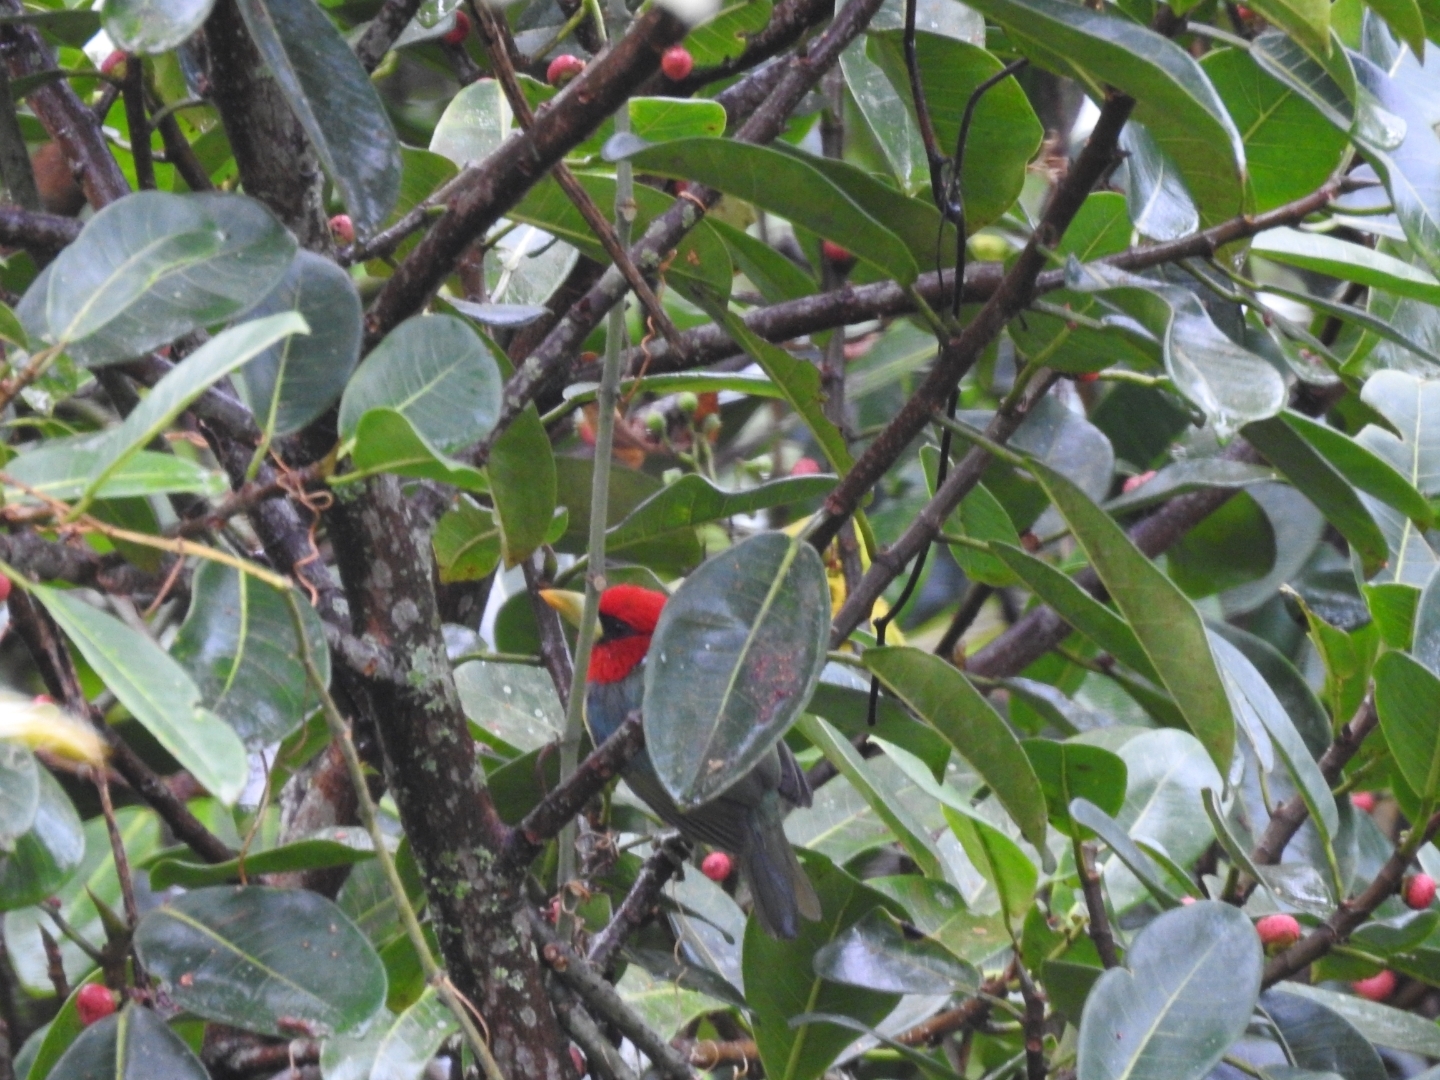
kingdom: Animalia
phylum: Chordata
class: Aves
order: Piciformes
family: Capitonidae
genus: Eubucco
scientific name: Eubucco bourcierii
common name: Red-headed barbet
